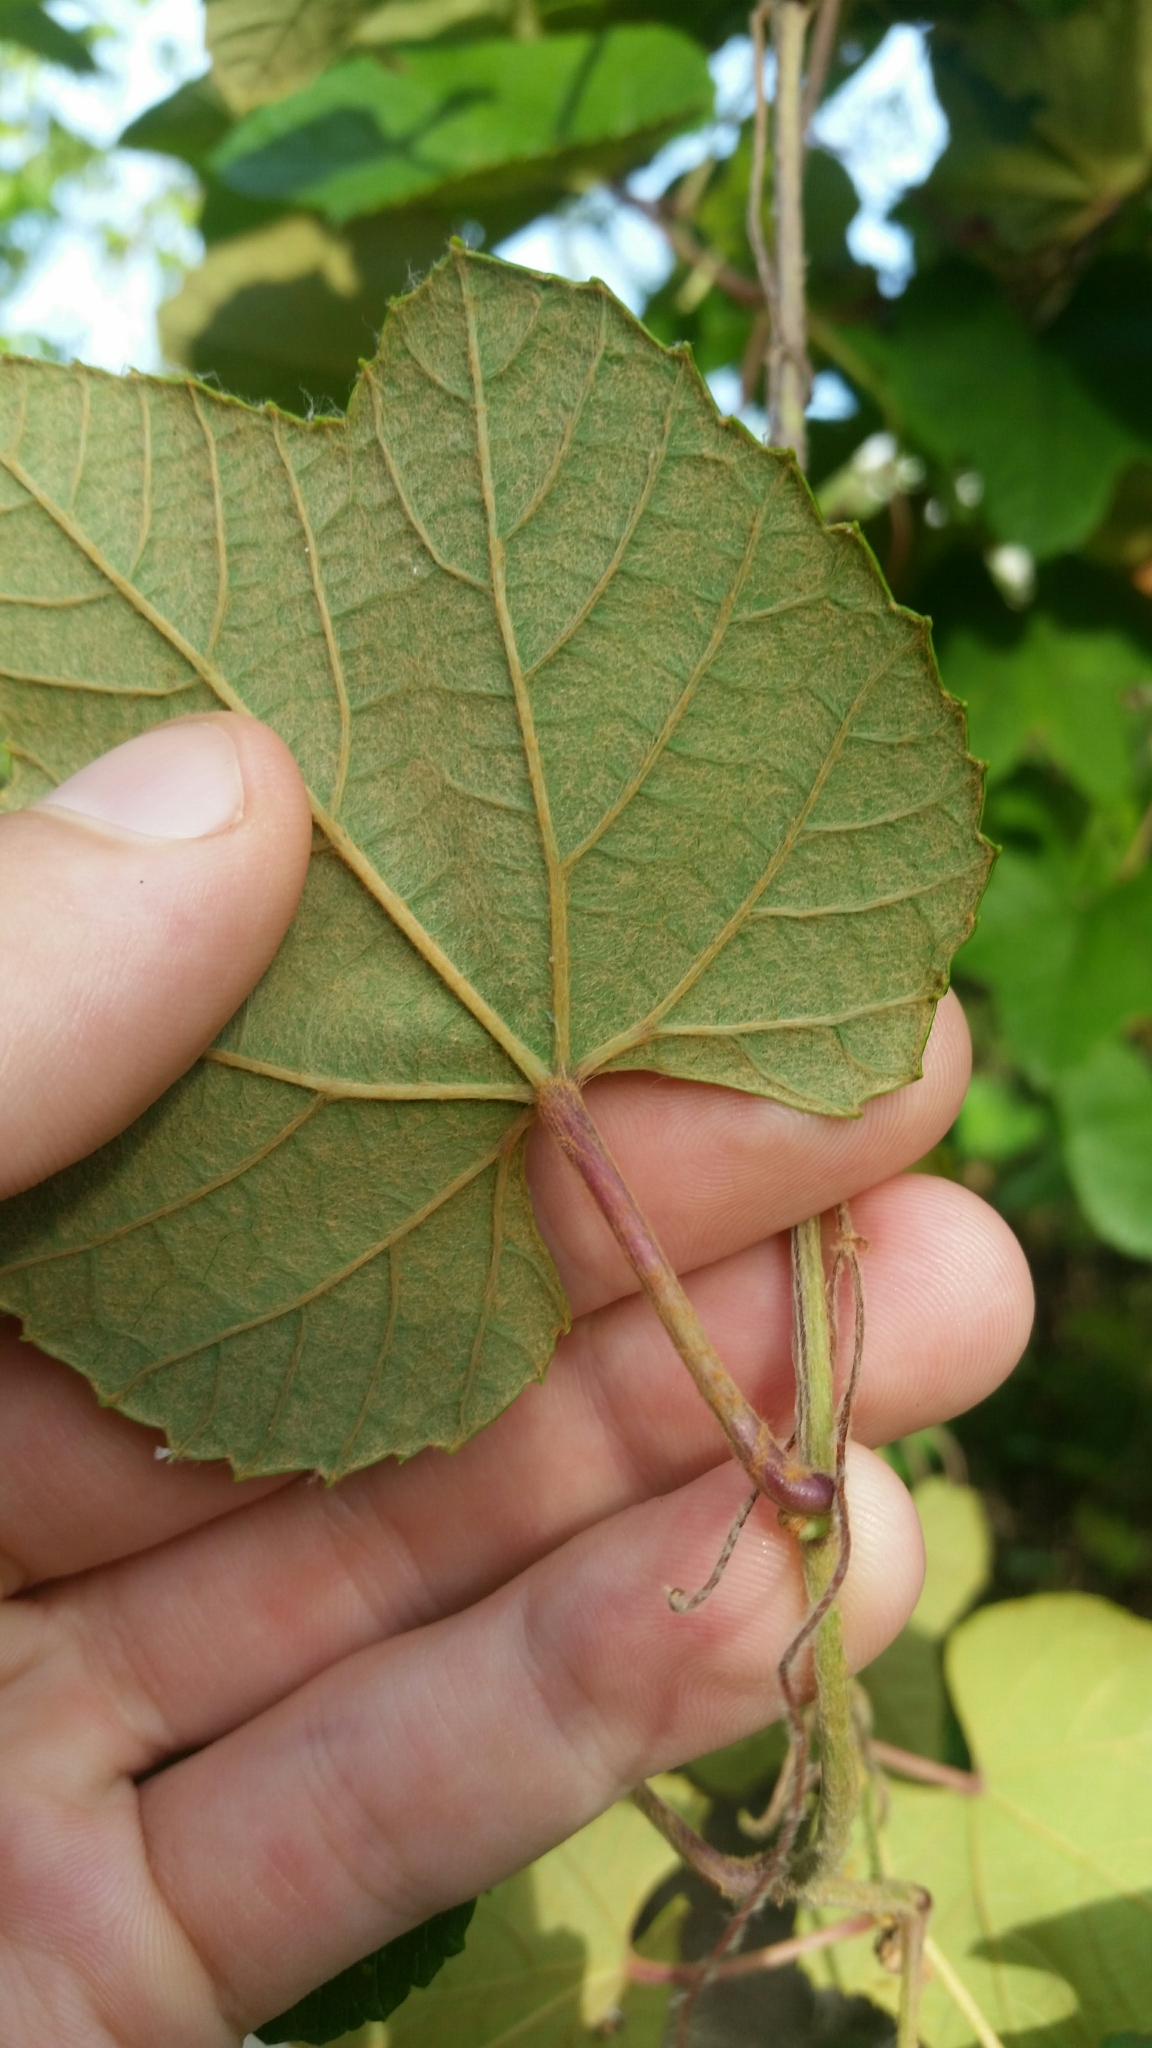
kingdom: Plantae
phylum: Tracheophyta
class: Magnoliopsida
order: Vitales
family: Vitaceae
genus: Vitis
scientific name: Vitis ficifolia
